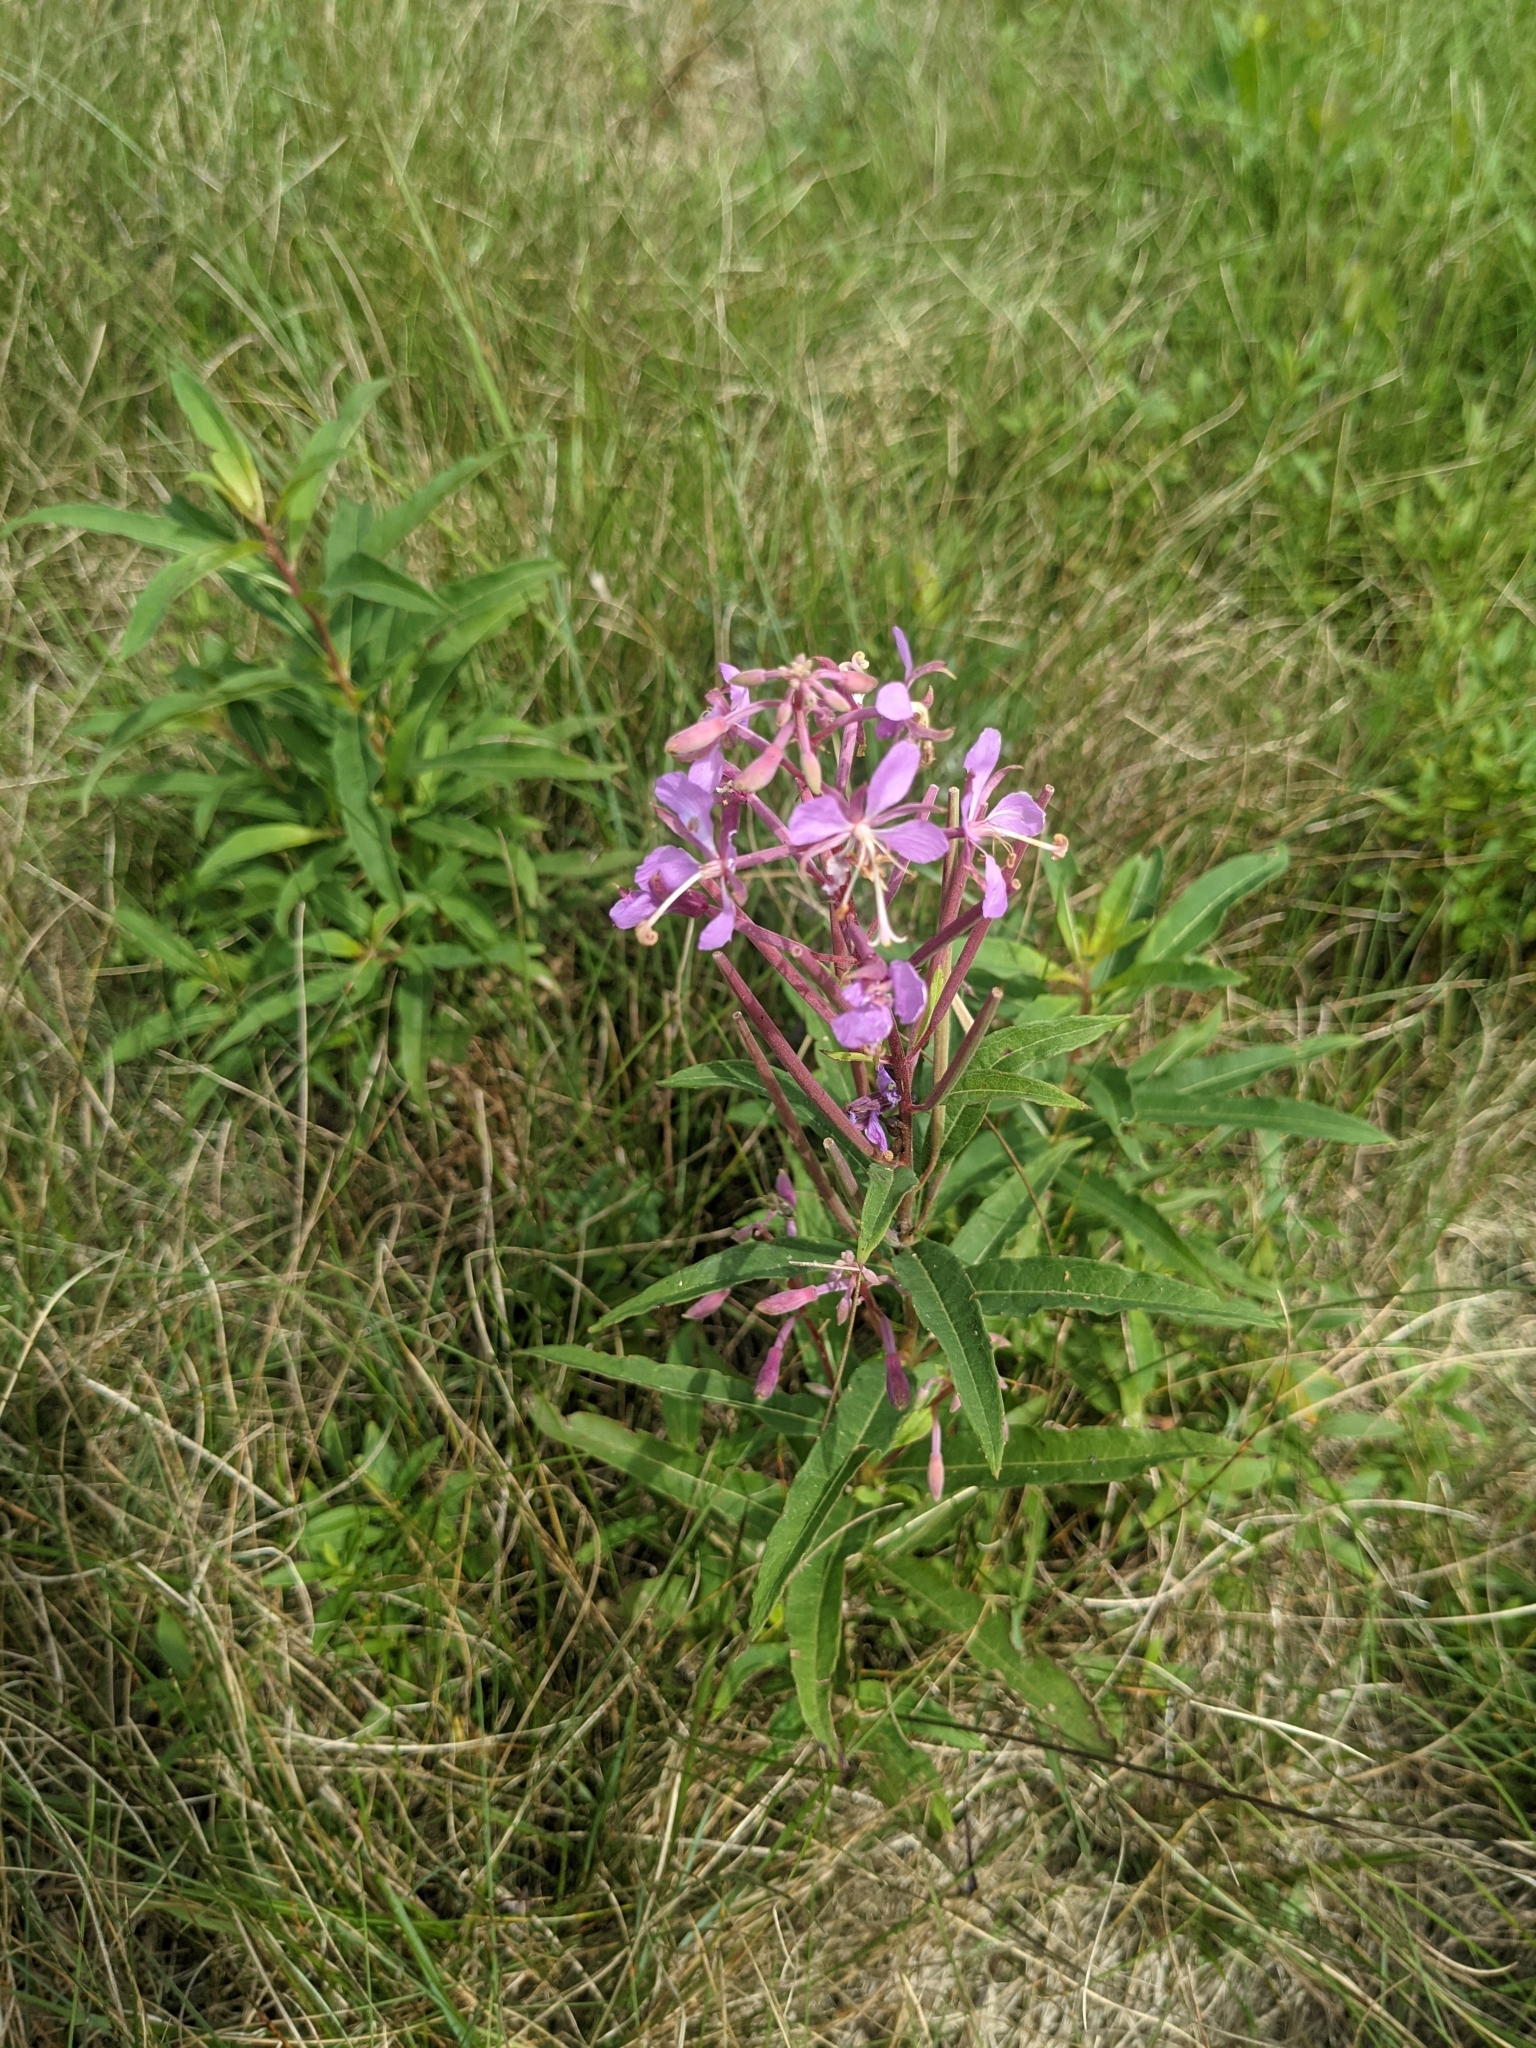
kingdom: Plantae
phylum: Tracheophyta
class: Magnoliopsida
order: Myrtales
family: Onagraceae
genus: Chamaenerion
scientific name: Chamaenerion angustifolium
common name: Fireweed
